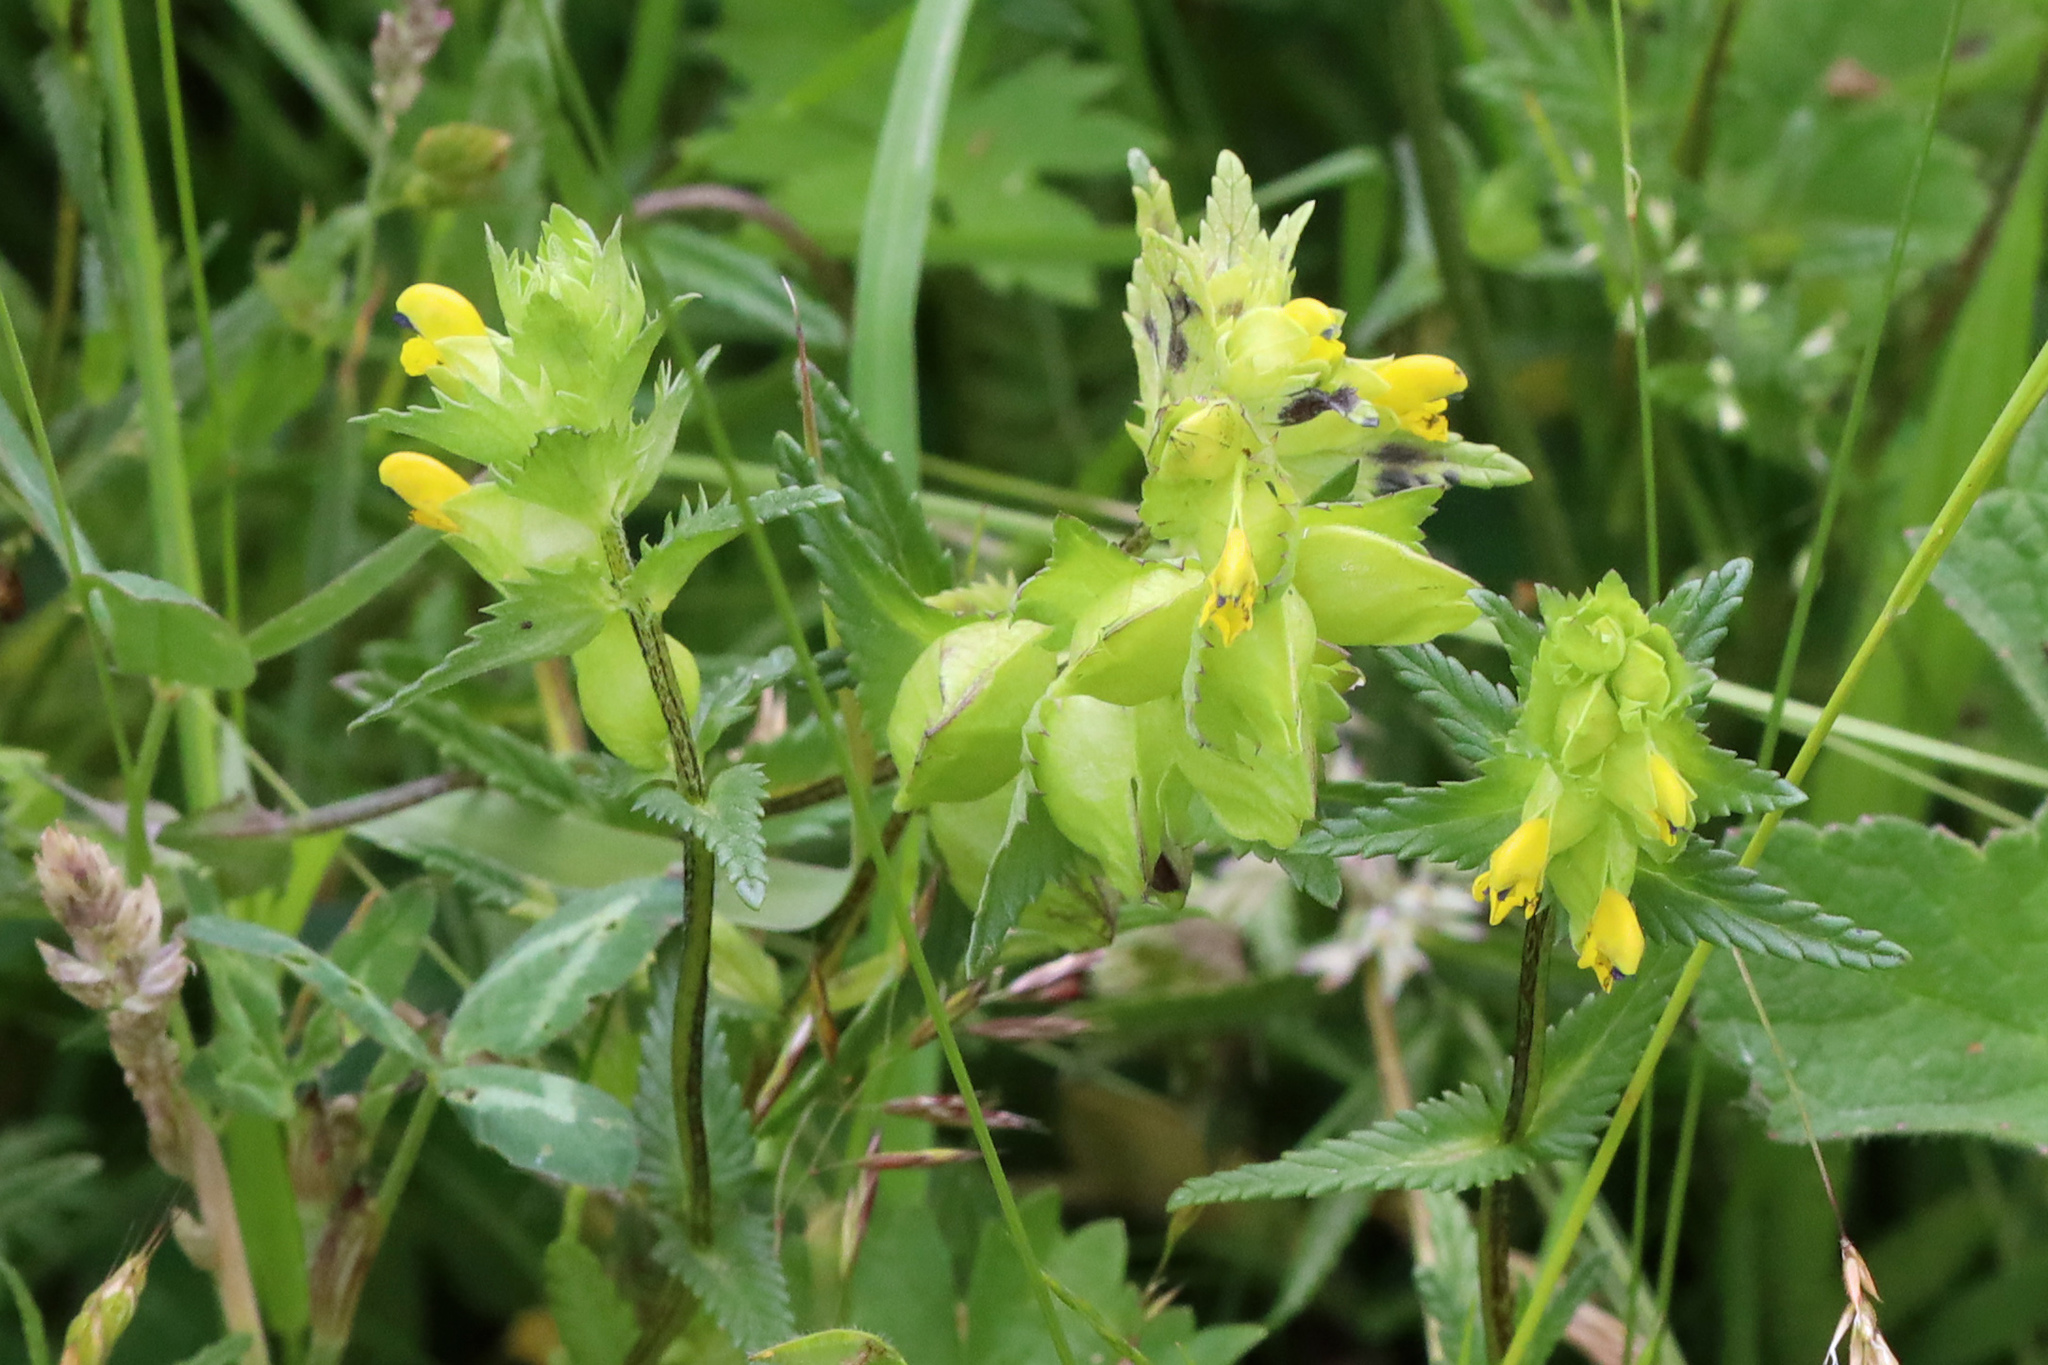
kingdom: Plantae
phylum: Tracheophyta
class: Magnoliopsida
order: Lamiales
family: Orobanchaceae
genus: Rhinanthus
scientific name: Rhinanthus minor
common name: Yellow-rattle
